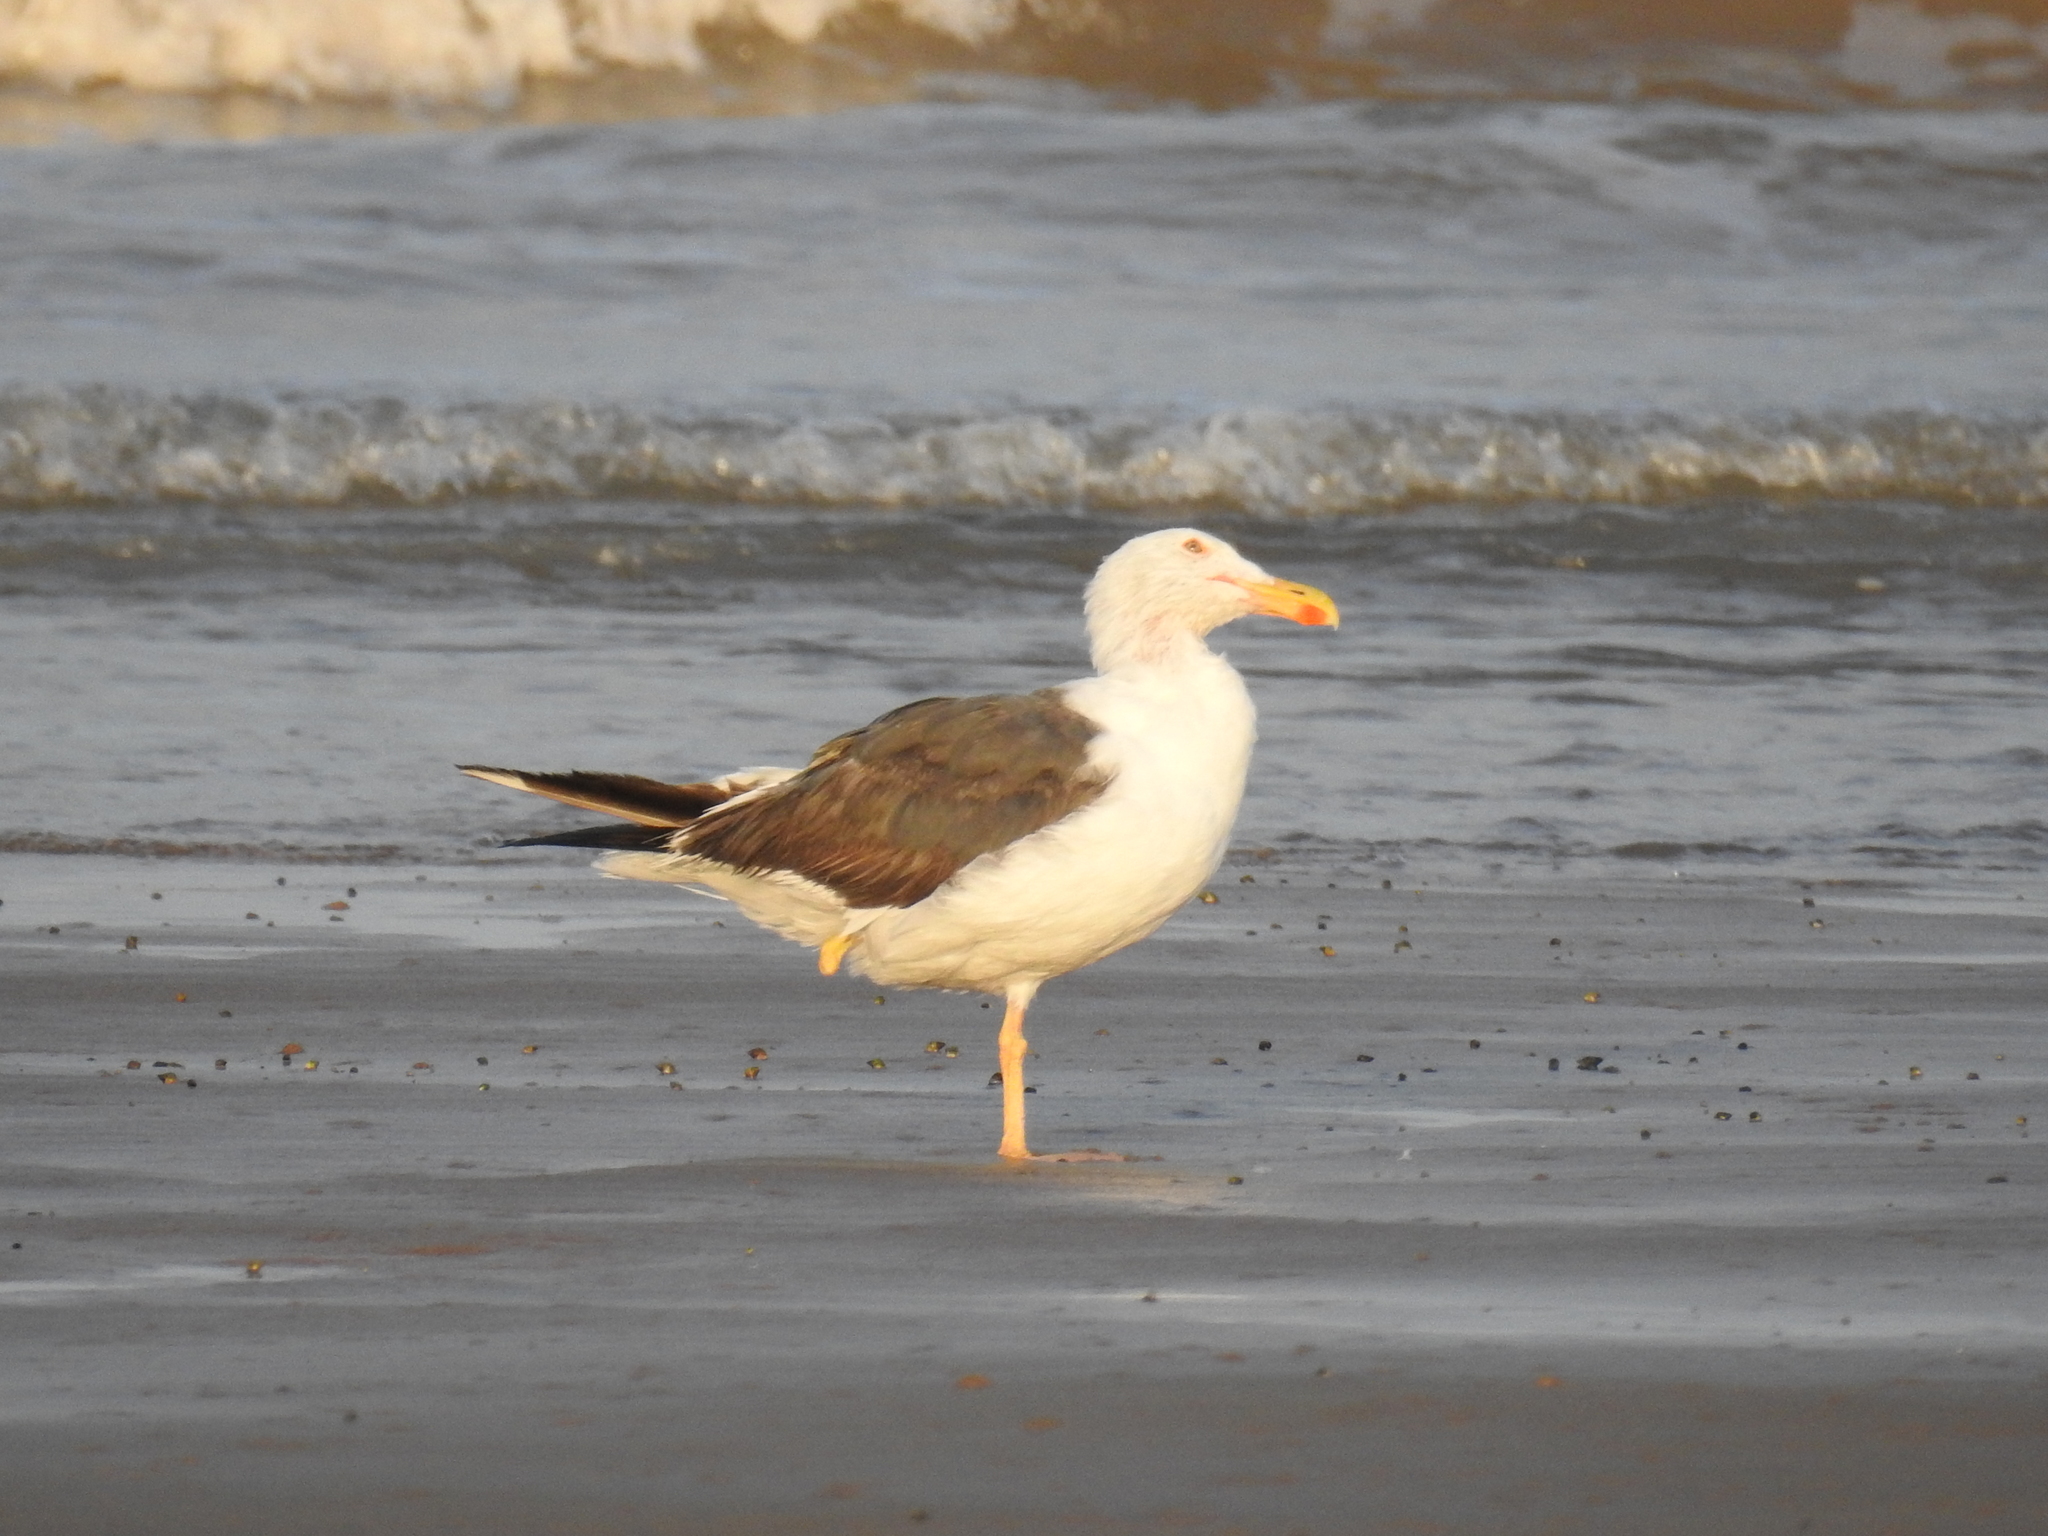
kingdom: Animalia
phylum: Chordata
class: Aves
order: Charadriiformes
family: Laridae
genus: Larus
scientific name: Larus livens
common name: Yellow-footed gull
